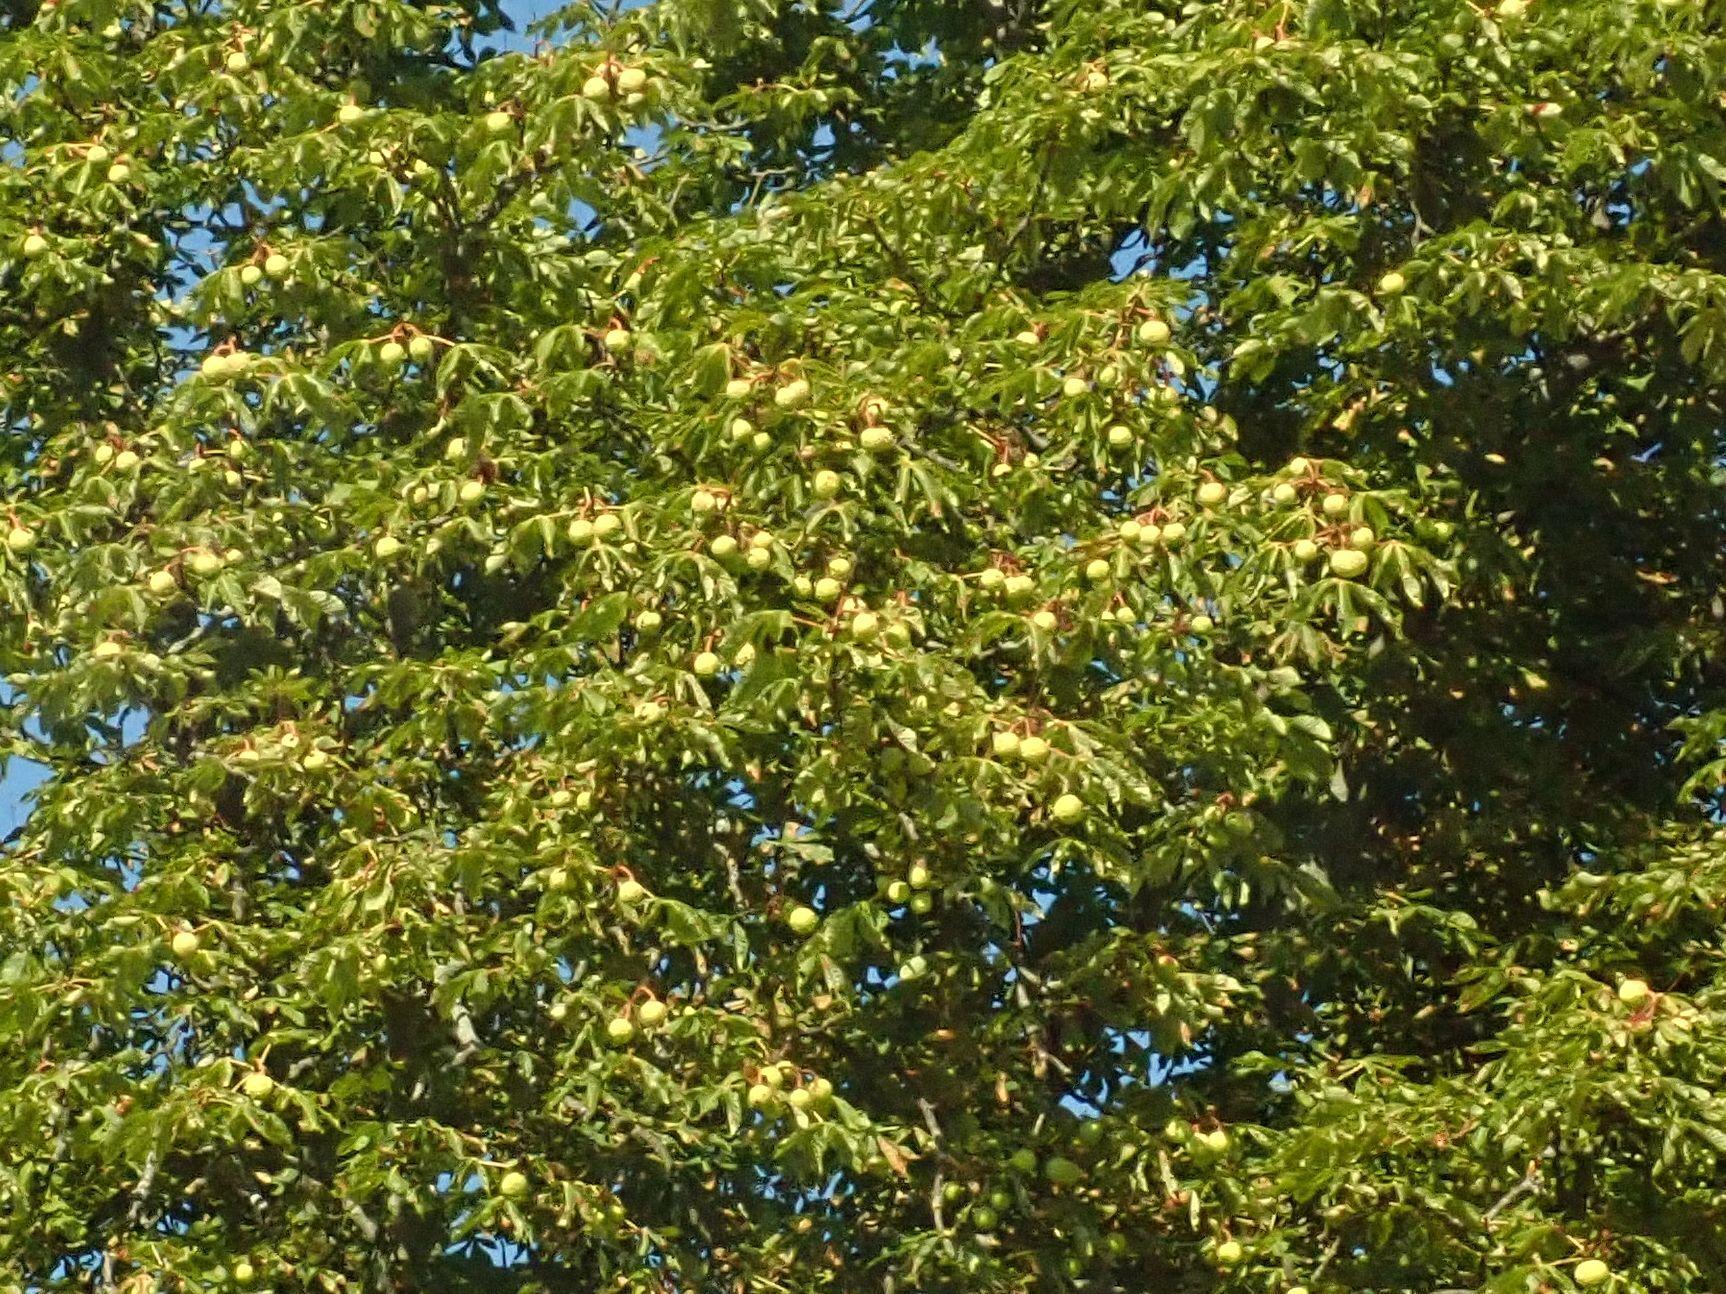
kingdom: Plantae
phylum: Tracheophyta
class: Magnoliopsida
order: Sapindales
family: Sapindaceae
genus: Aesculus
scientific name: Aesculus hippocastanum
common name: Horse-chestnut
